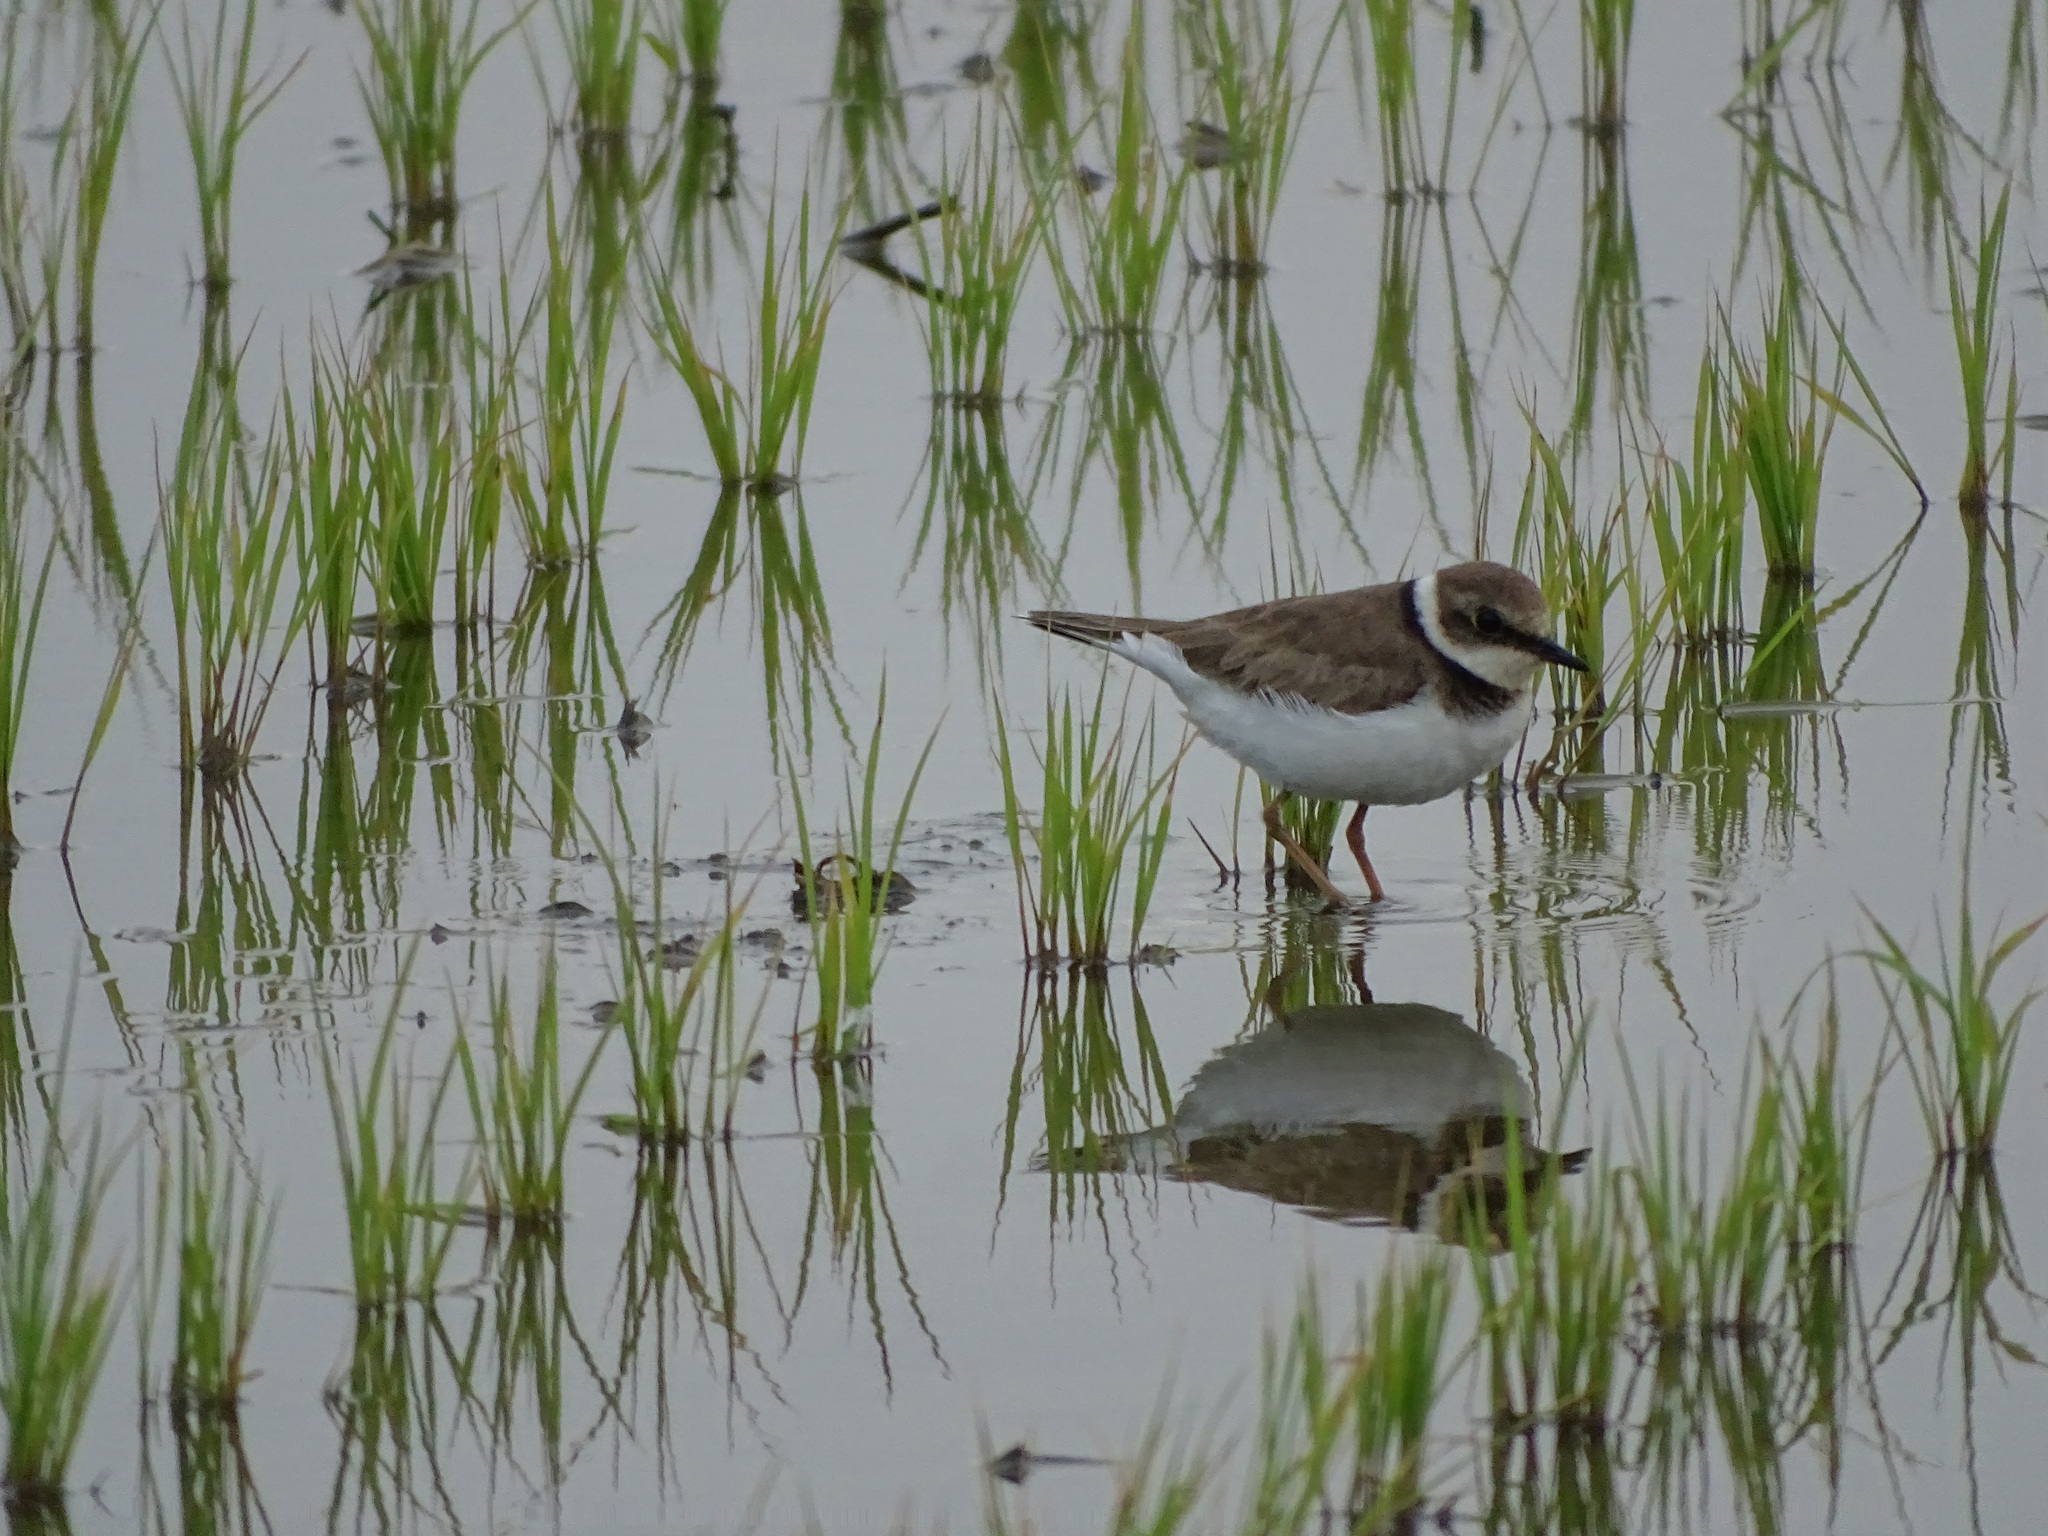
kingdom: Animalia
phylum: Chordata
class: Aves
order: Charadriiformes
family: Charadriidae
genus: Charadrius
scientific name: Charadrius dubius
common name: Little ringed plover
